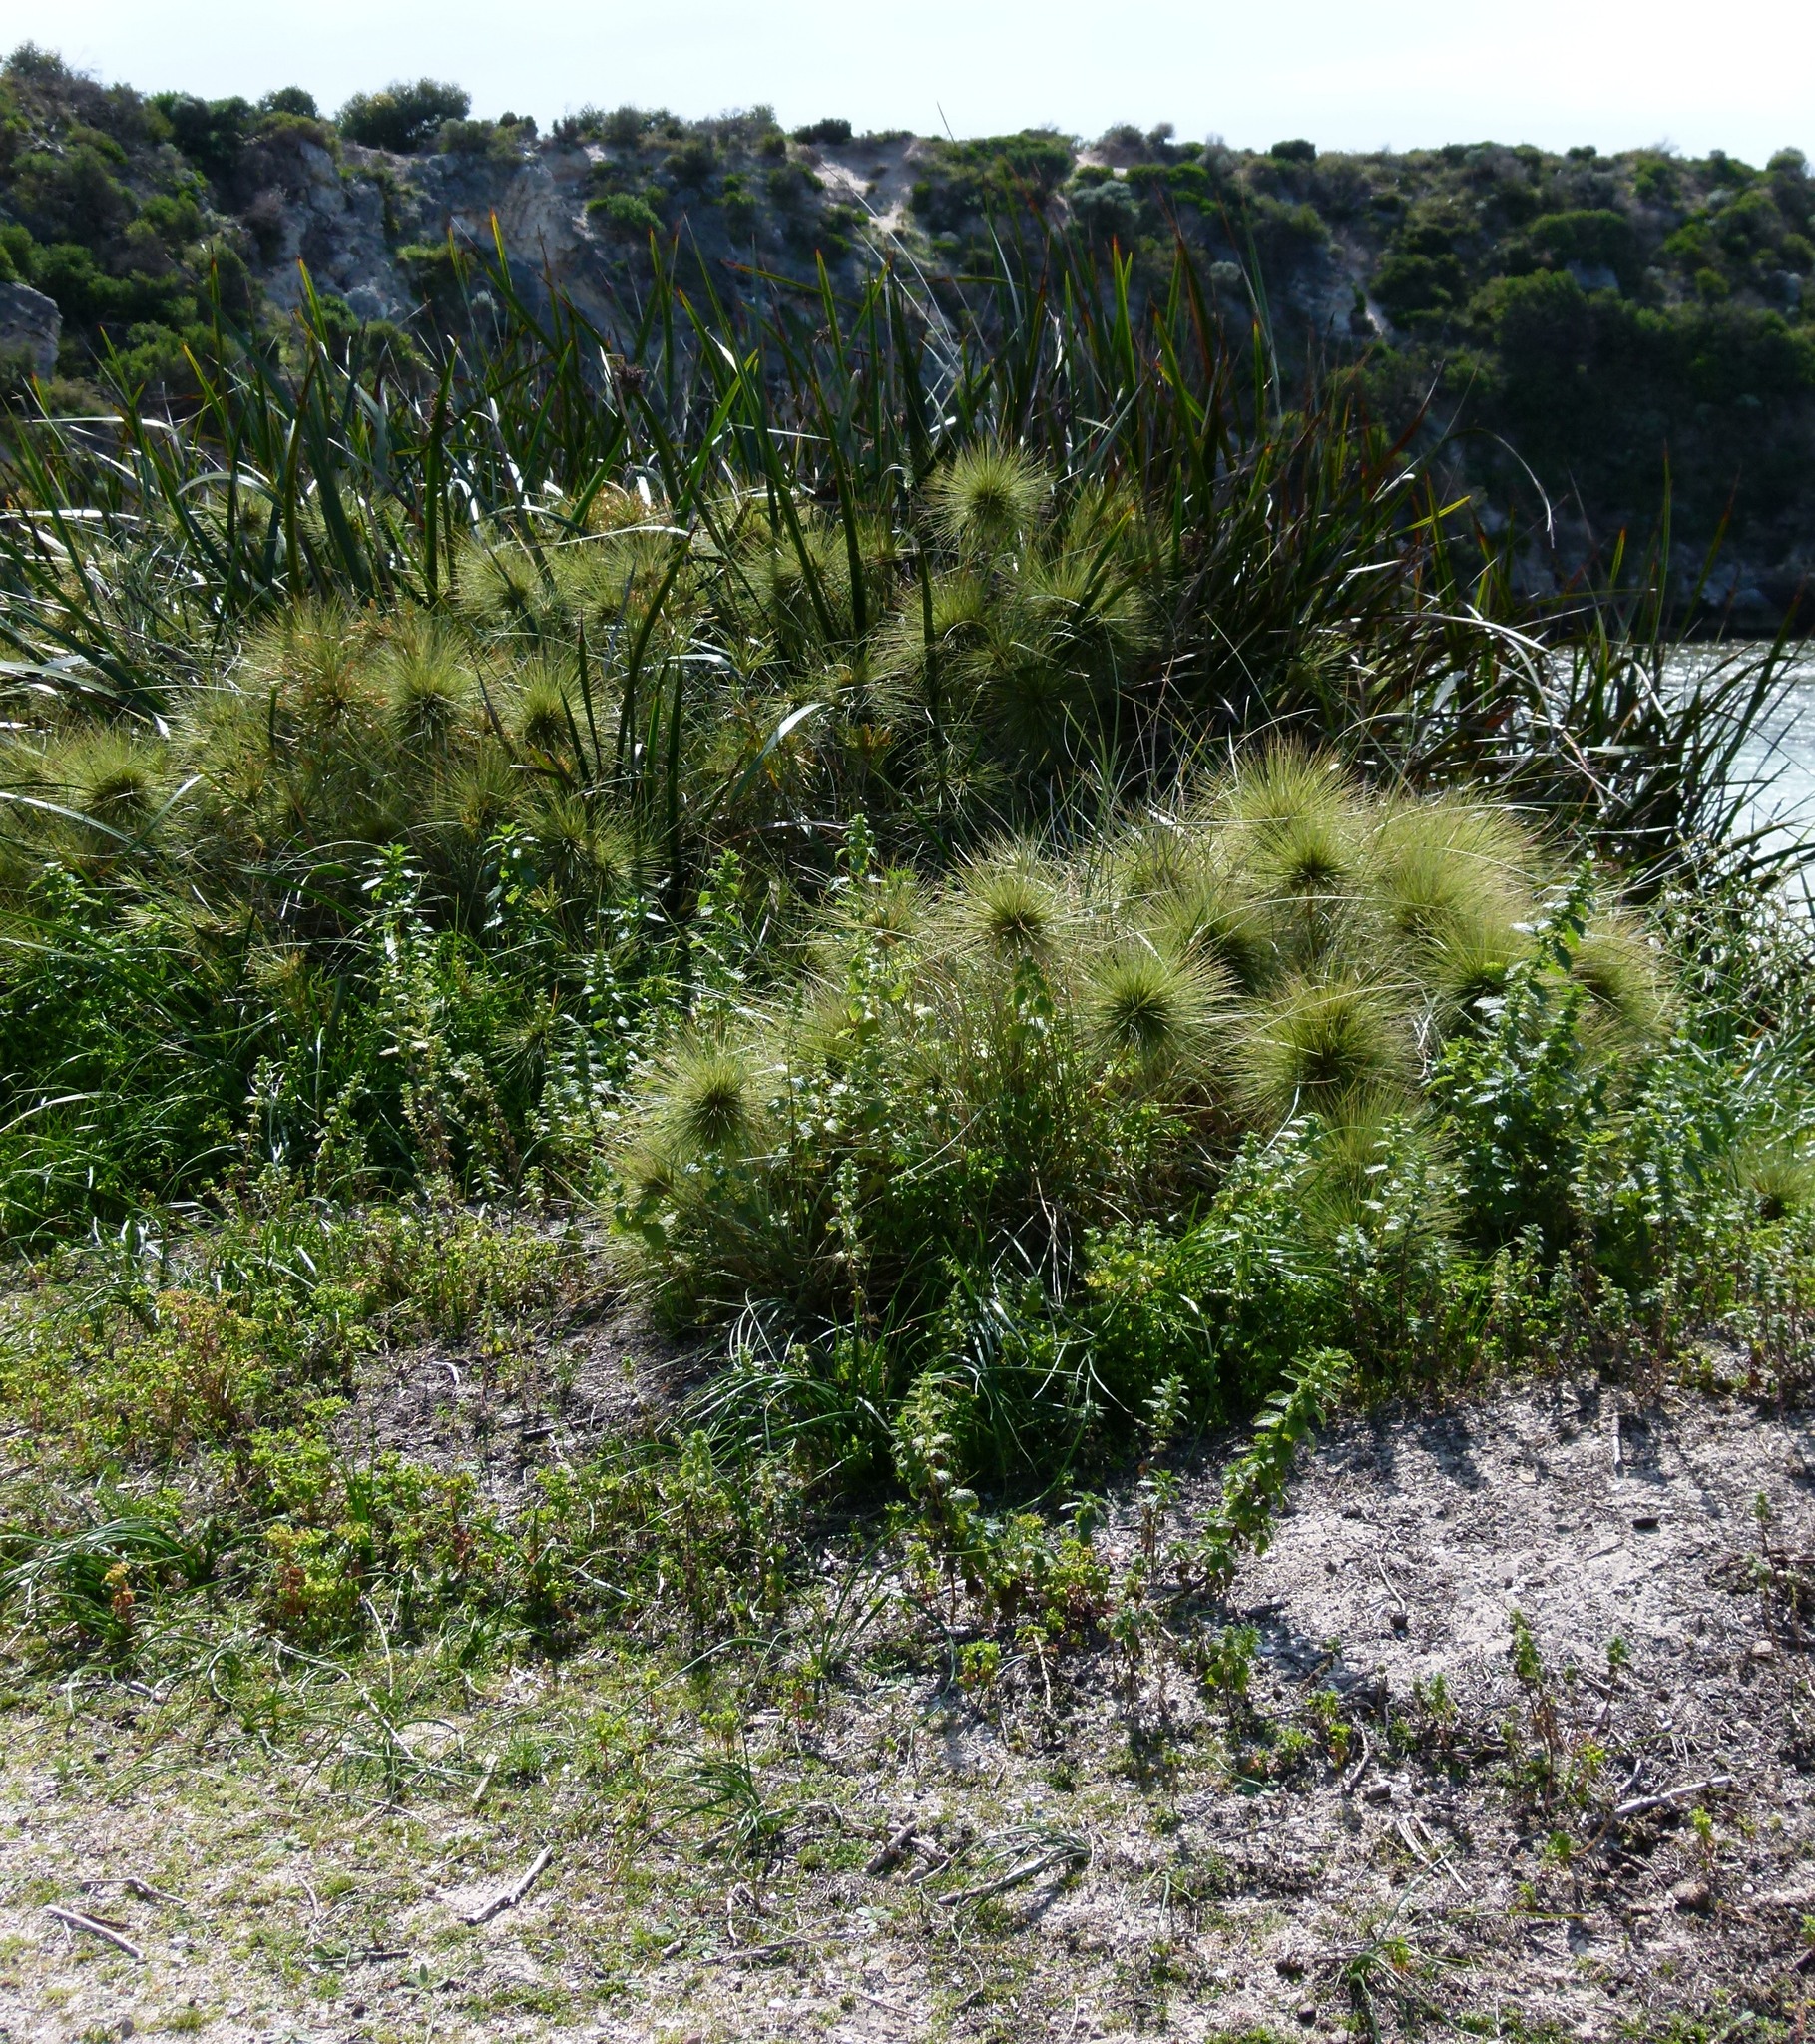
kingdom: Plantae
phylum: Tracheophyta
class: Liliopsida
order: Poales
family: Poaceae
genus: Spinifex
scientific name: Spinifex longifolius
